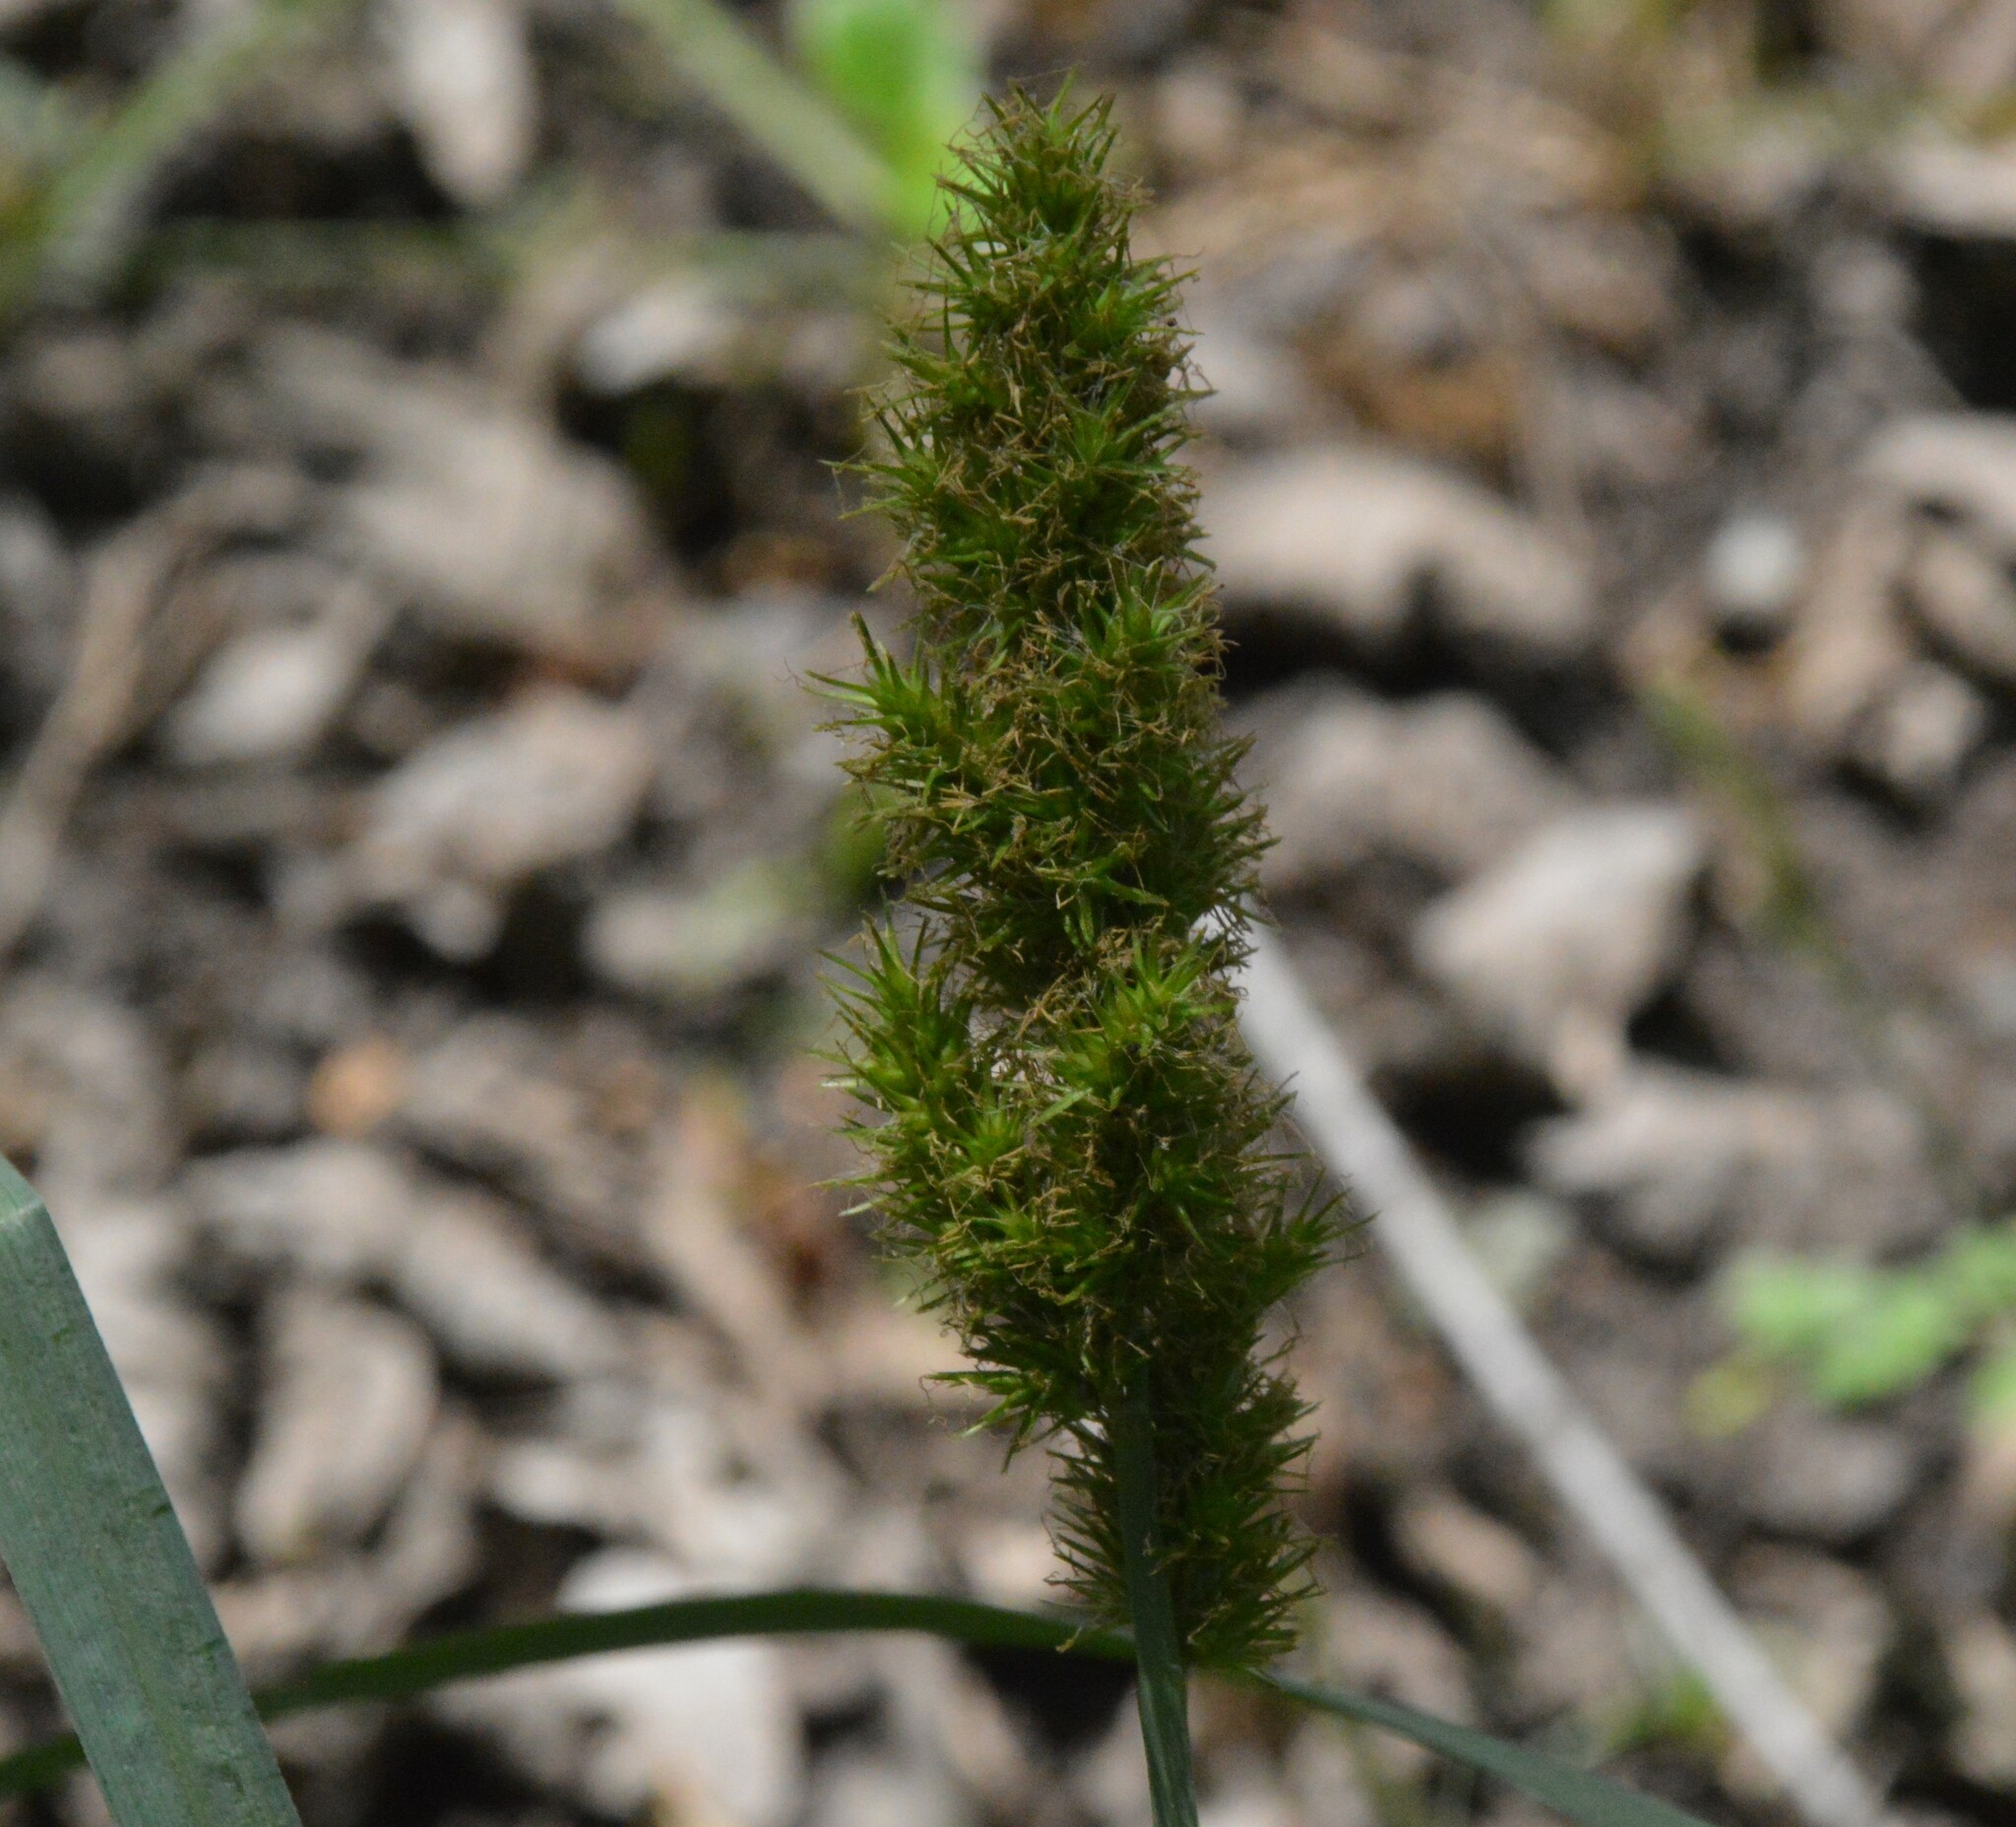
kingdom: Plantae
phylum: Tracheophyta
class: Liliopsida
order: Poales
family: Cyperaceae
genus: Carex
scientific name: Carex crus-corvi
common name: Crow-spur sedge
